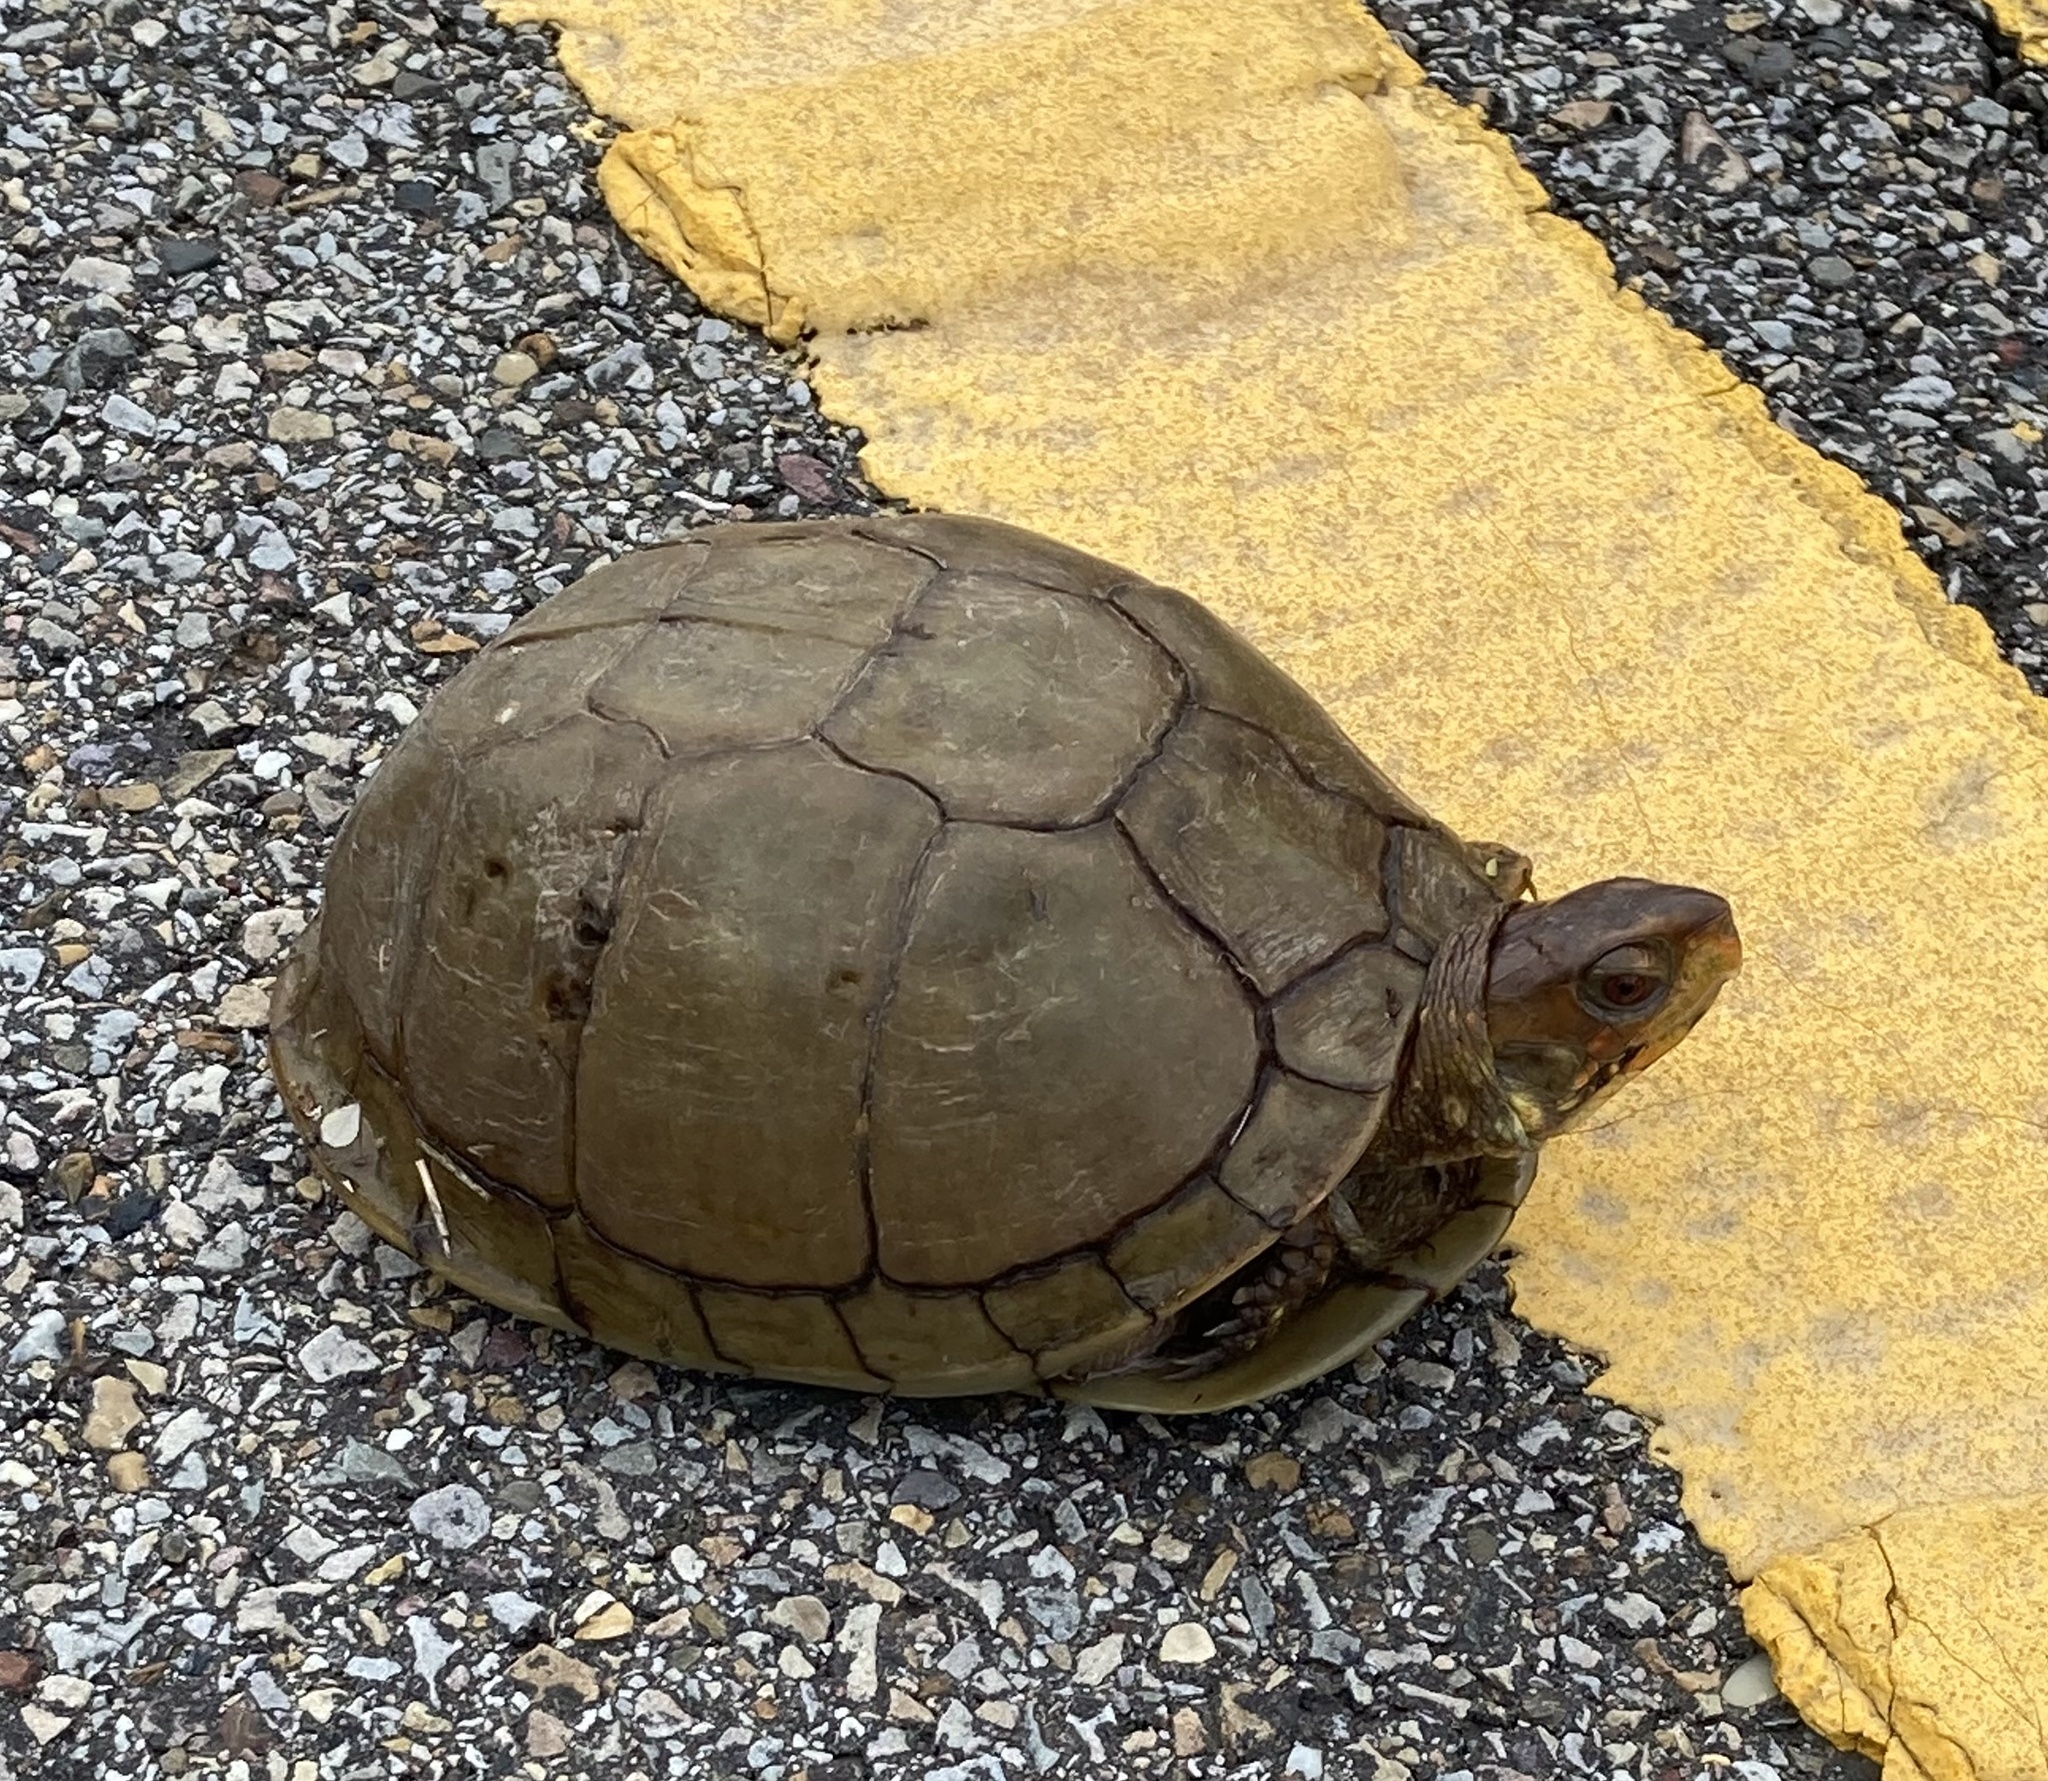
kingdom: Animalia
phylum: Chordata
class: Testudines
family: Emydidae
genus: Terrapene
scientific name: Terrapene carolina
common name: Common box turtle
